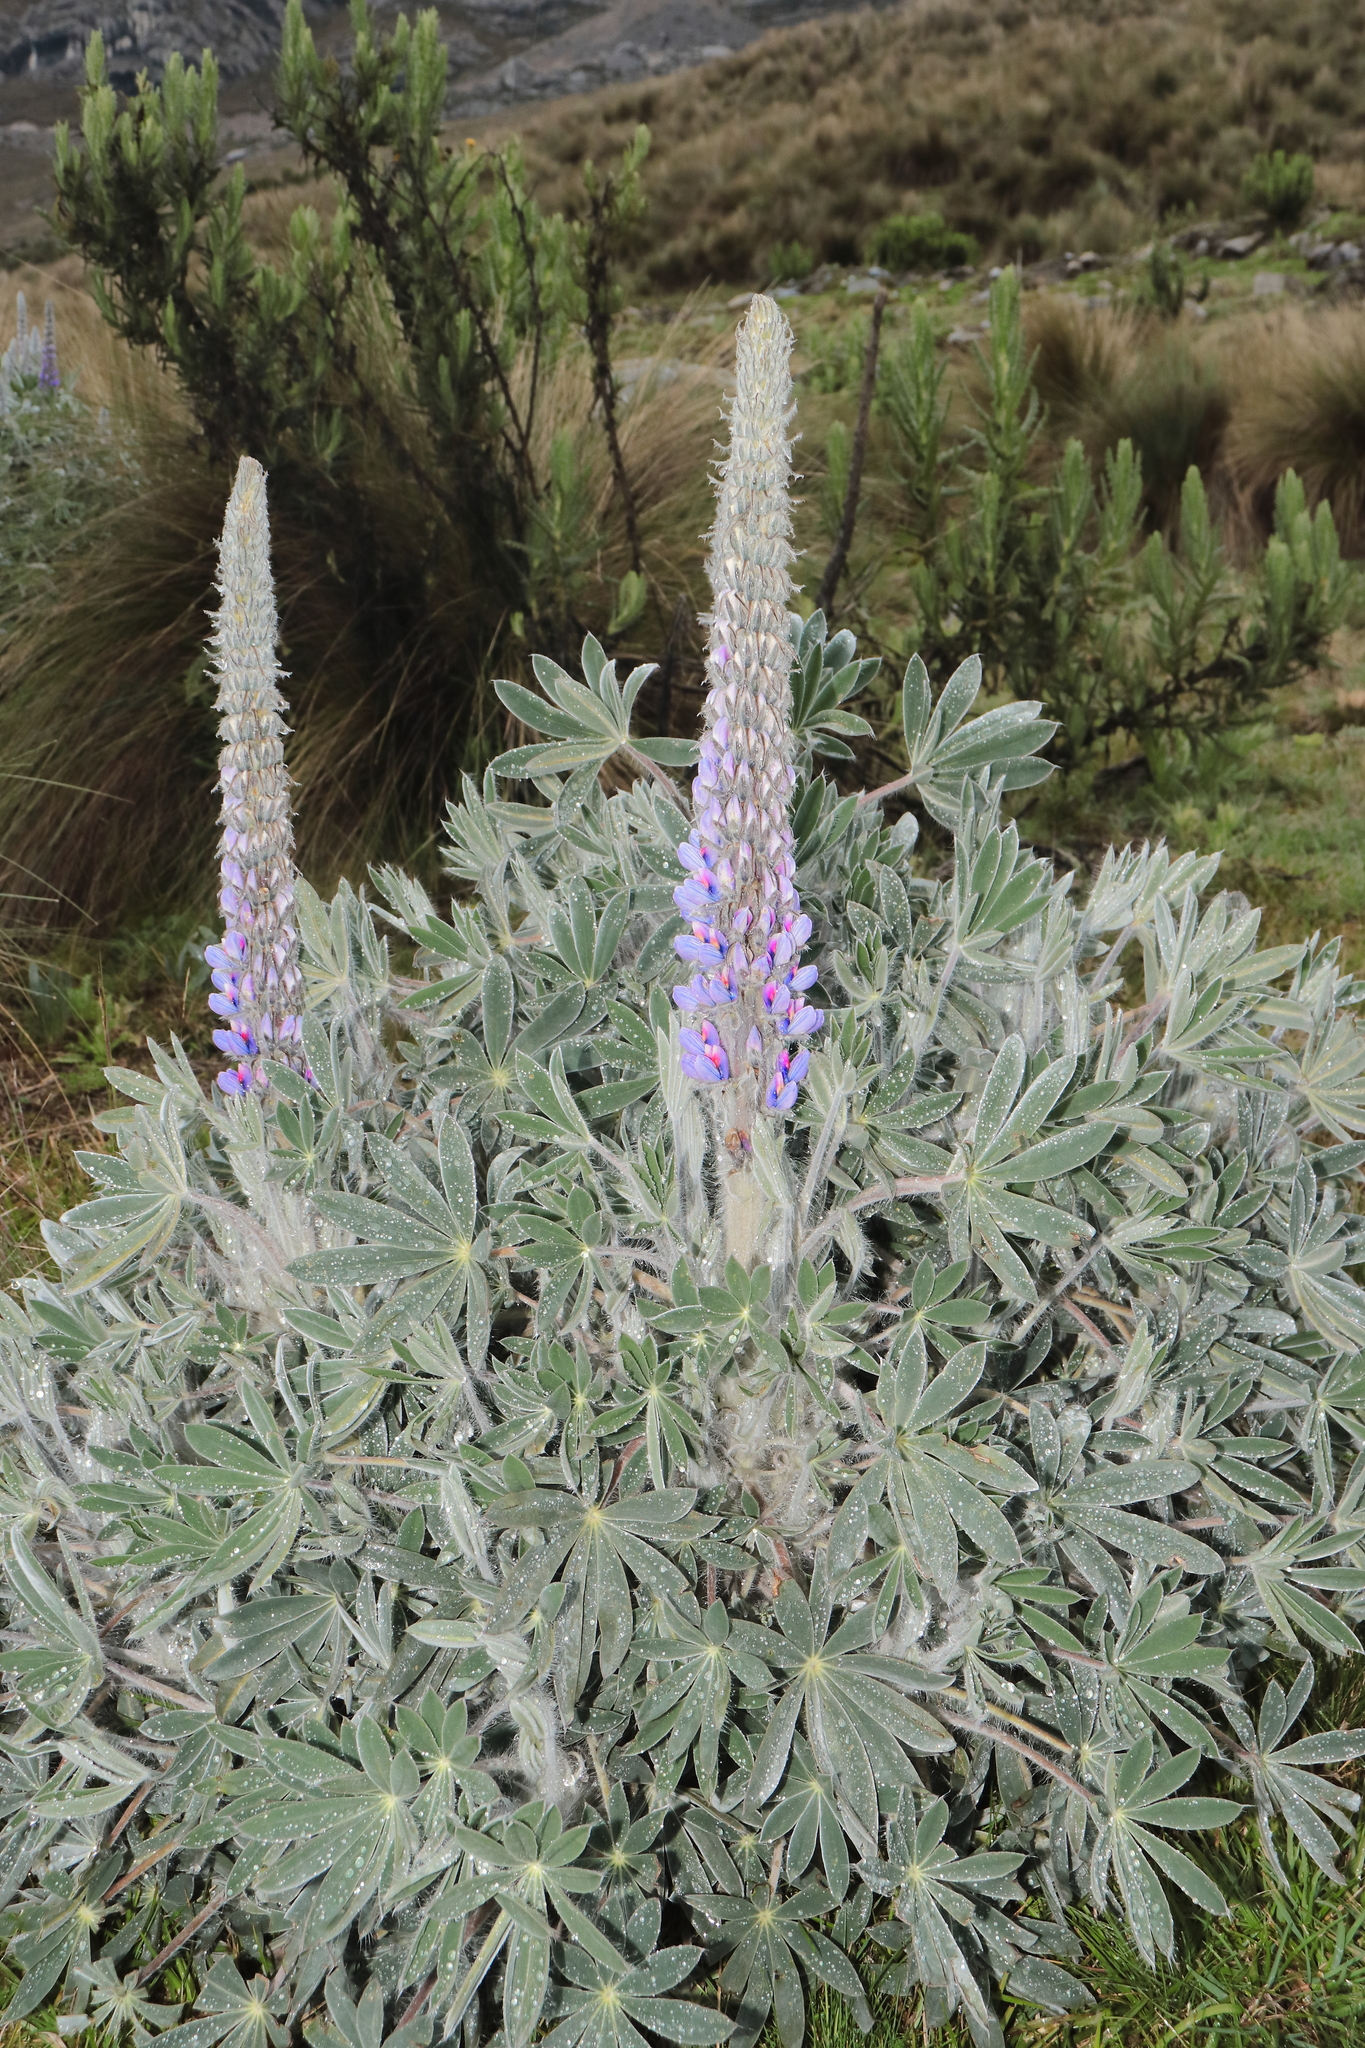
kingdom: Plantae
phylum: Tracheophyta
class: Magnoliopsida
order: Fabales
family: Fabaceae
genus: Lupinus
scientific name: Lupinus weberbaueri
